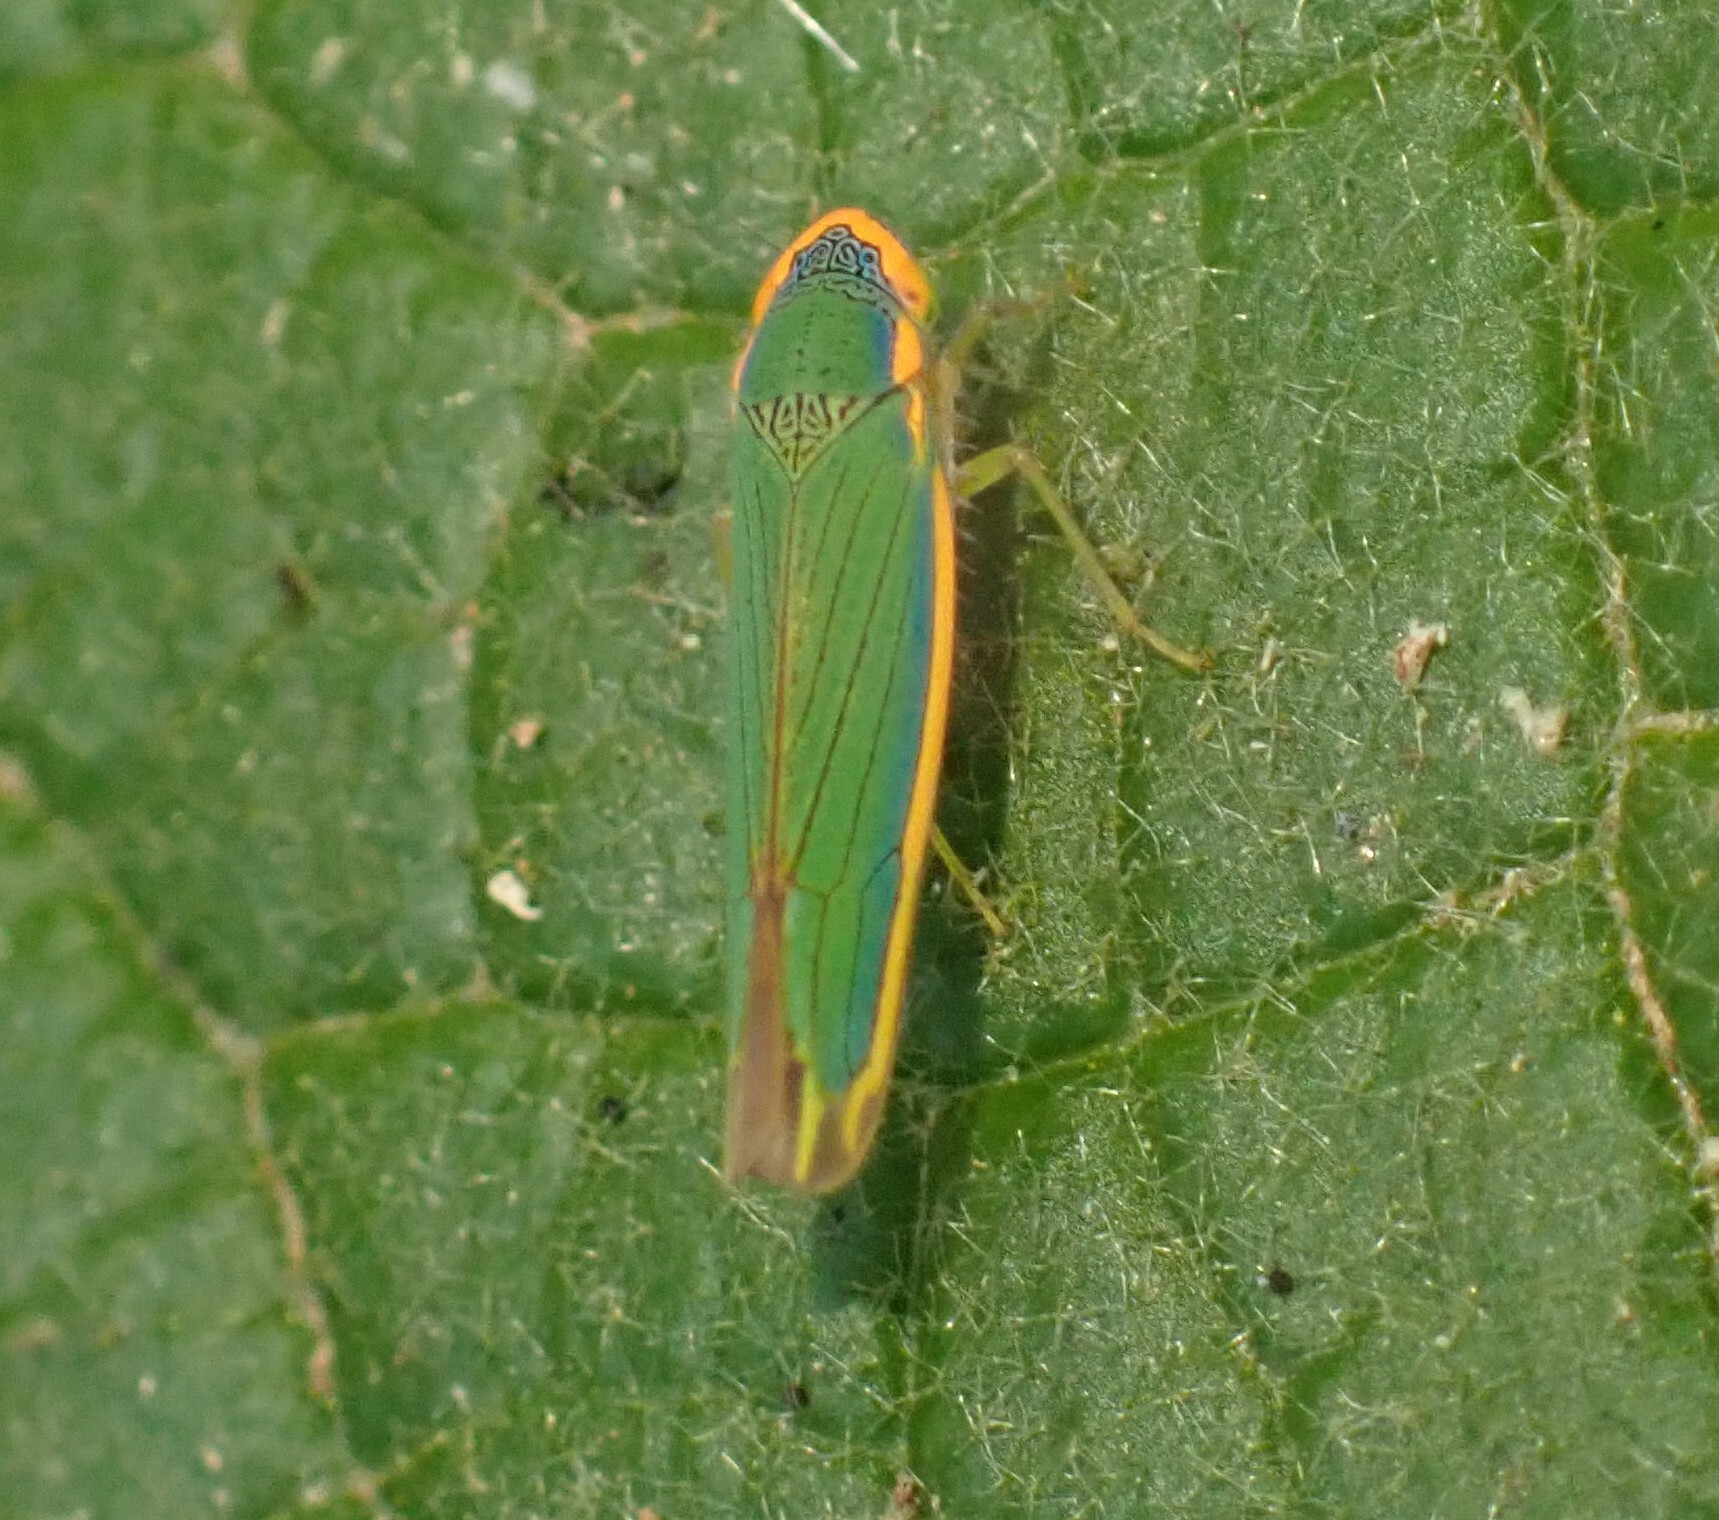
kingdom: Animalia
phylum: Arthropoda
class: Insecta
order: Hemiptera
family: Cicadellidae
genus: Coronigoniella
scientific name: Coronigoniella tiarae
